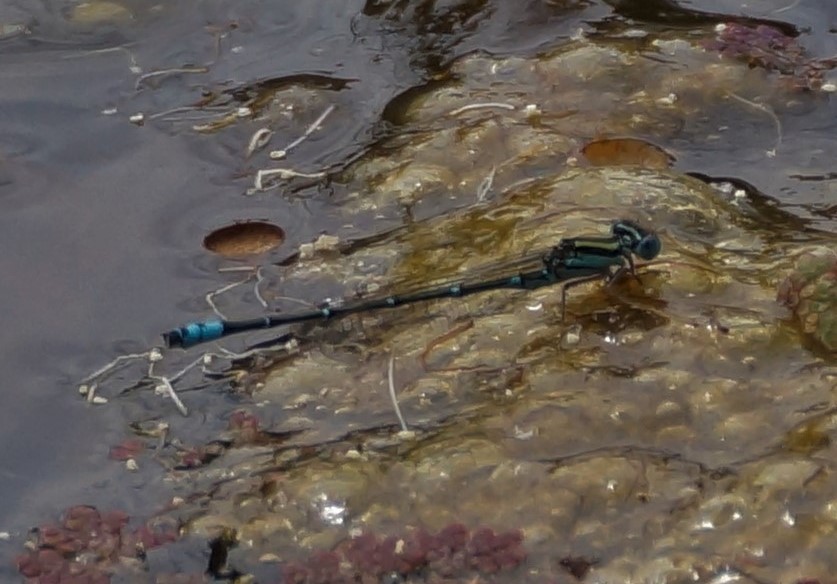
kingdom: Animalia
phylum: Arthropoda
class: Insecta
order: Odonata
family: Coenagrionidae
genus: Austroagrion
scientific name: Austroagrion watsoni
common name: Eastern billabongfly
